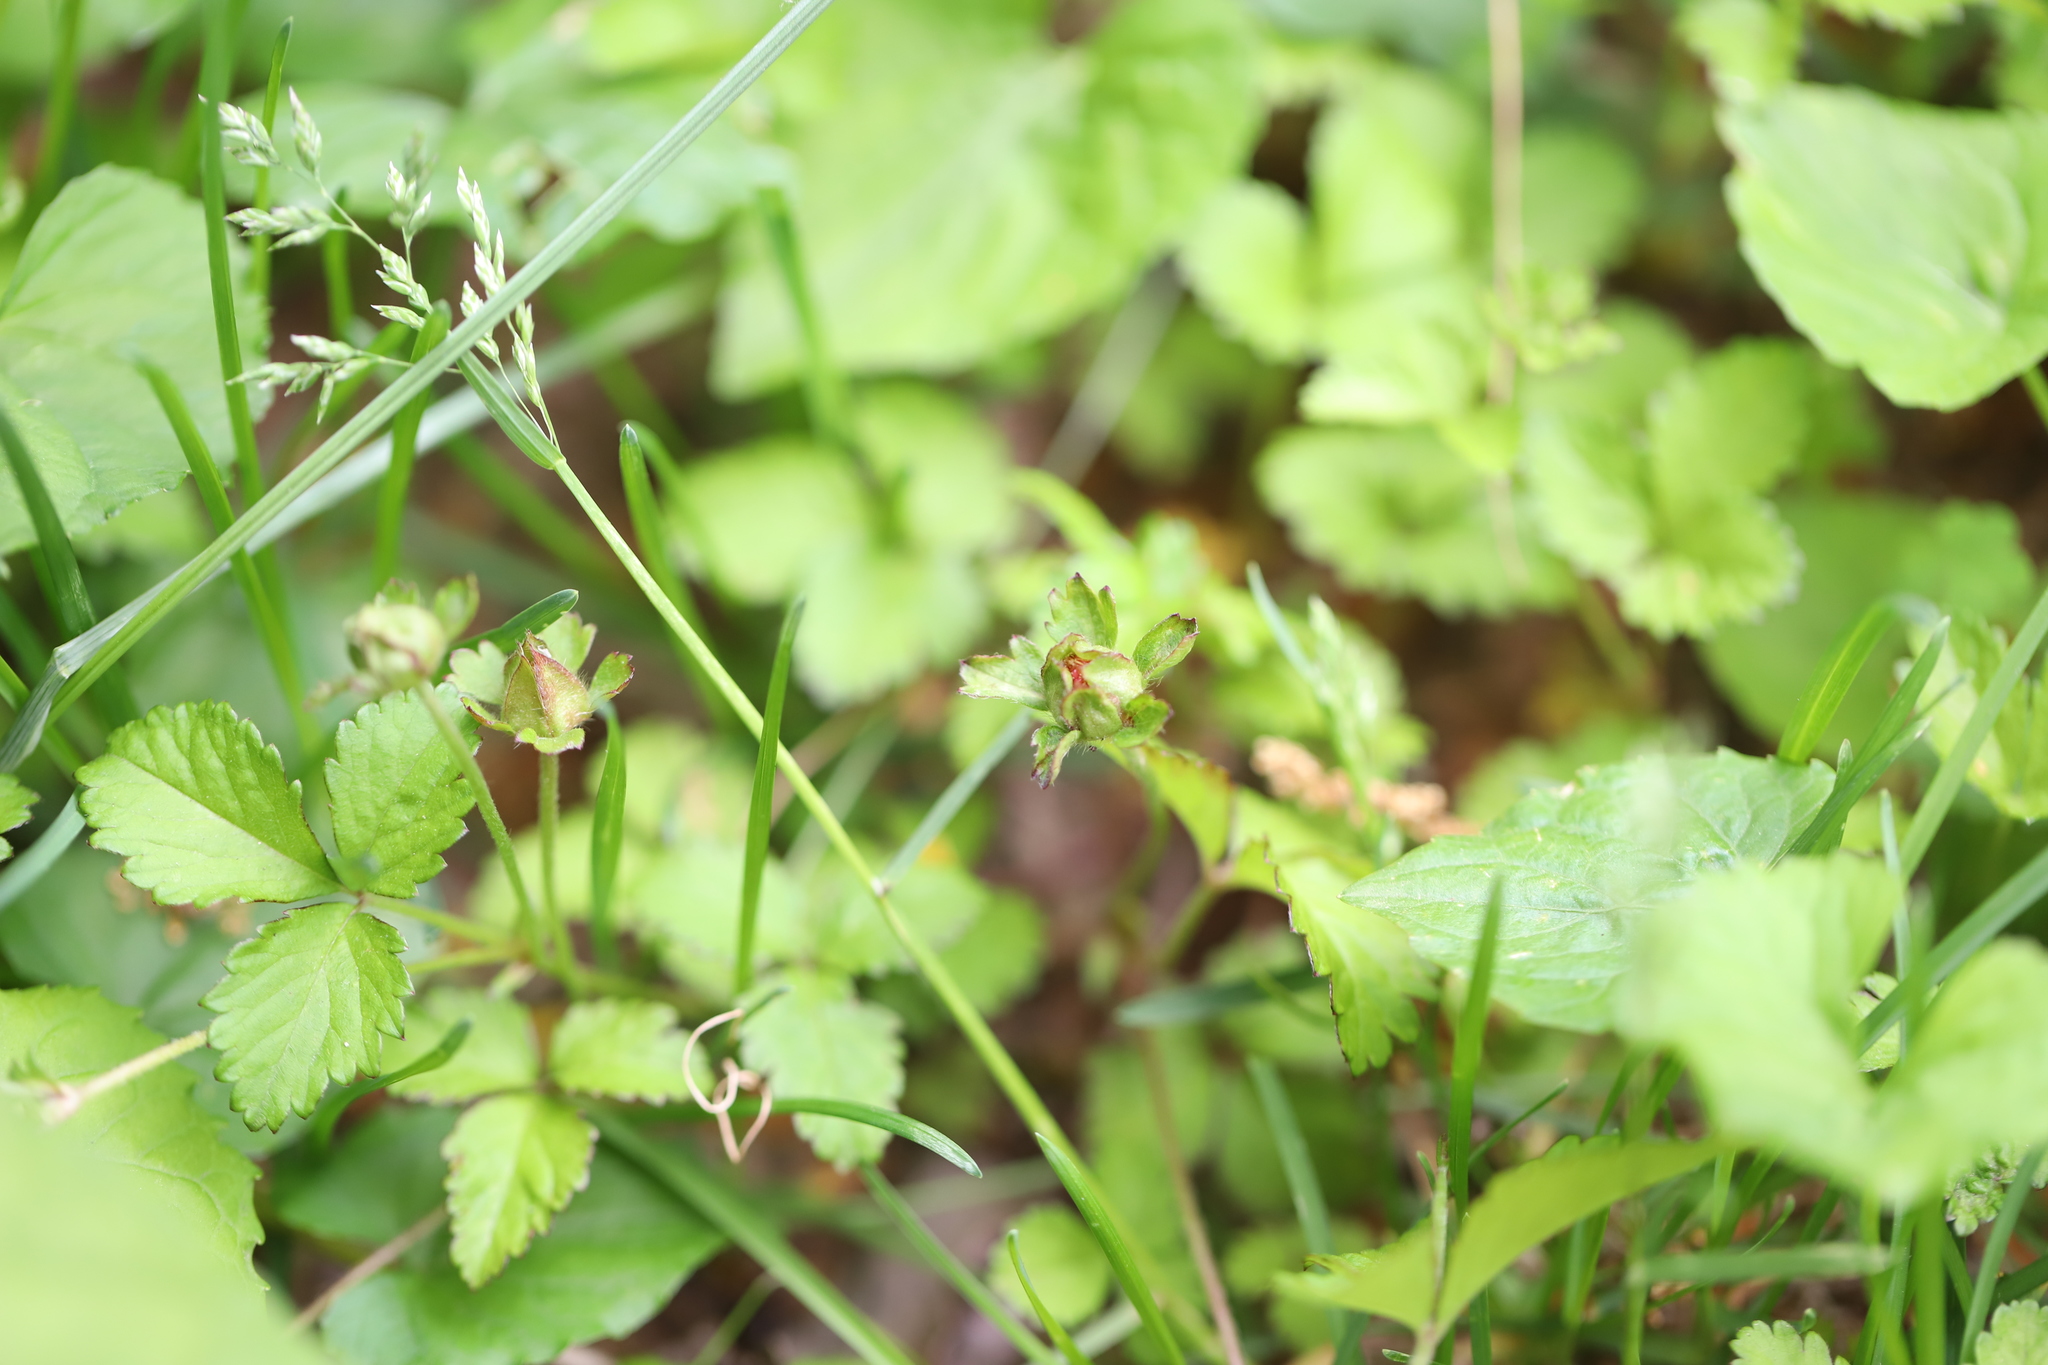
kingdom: Plantae
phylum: Tracheophyta
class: Magnoliopsida
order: Rosales
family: Rosaceae
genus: Potentilla
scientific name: Potentilla indica
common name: Yellow-flowered strawberry
